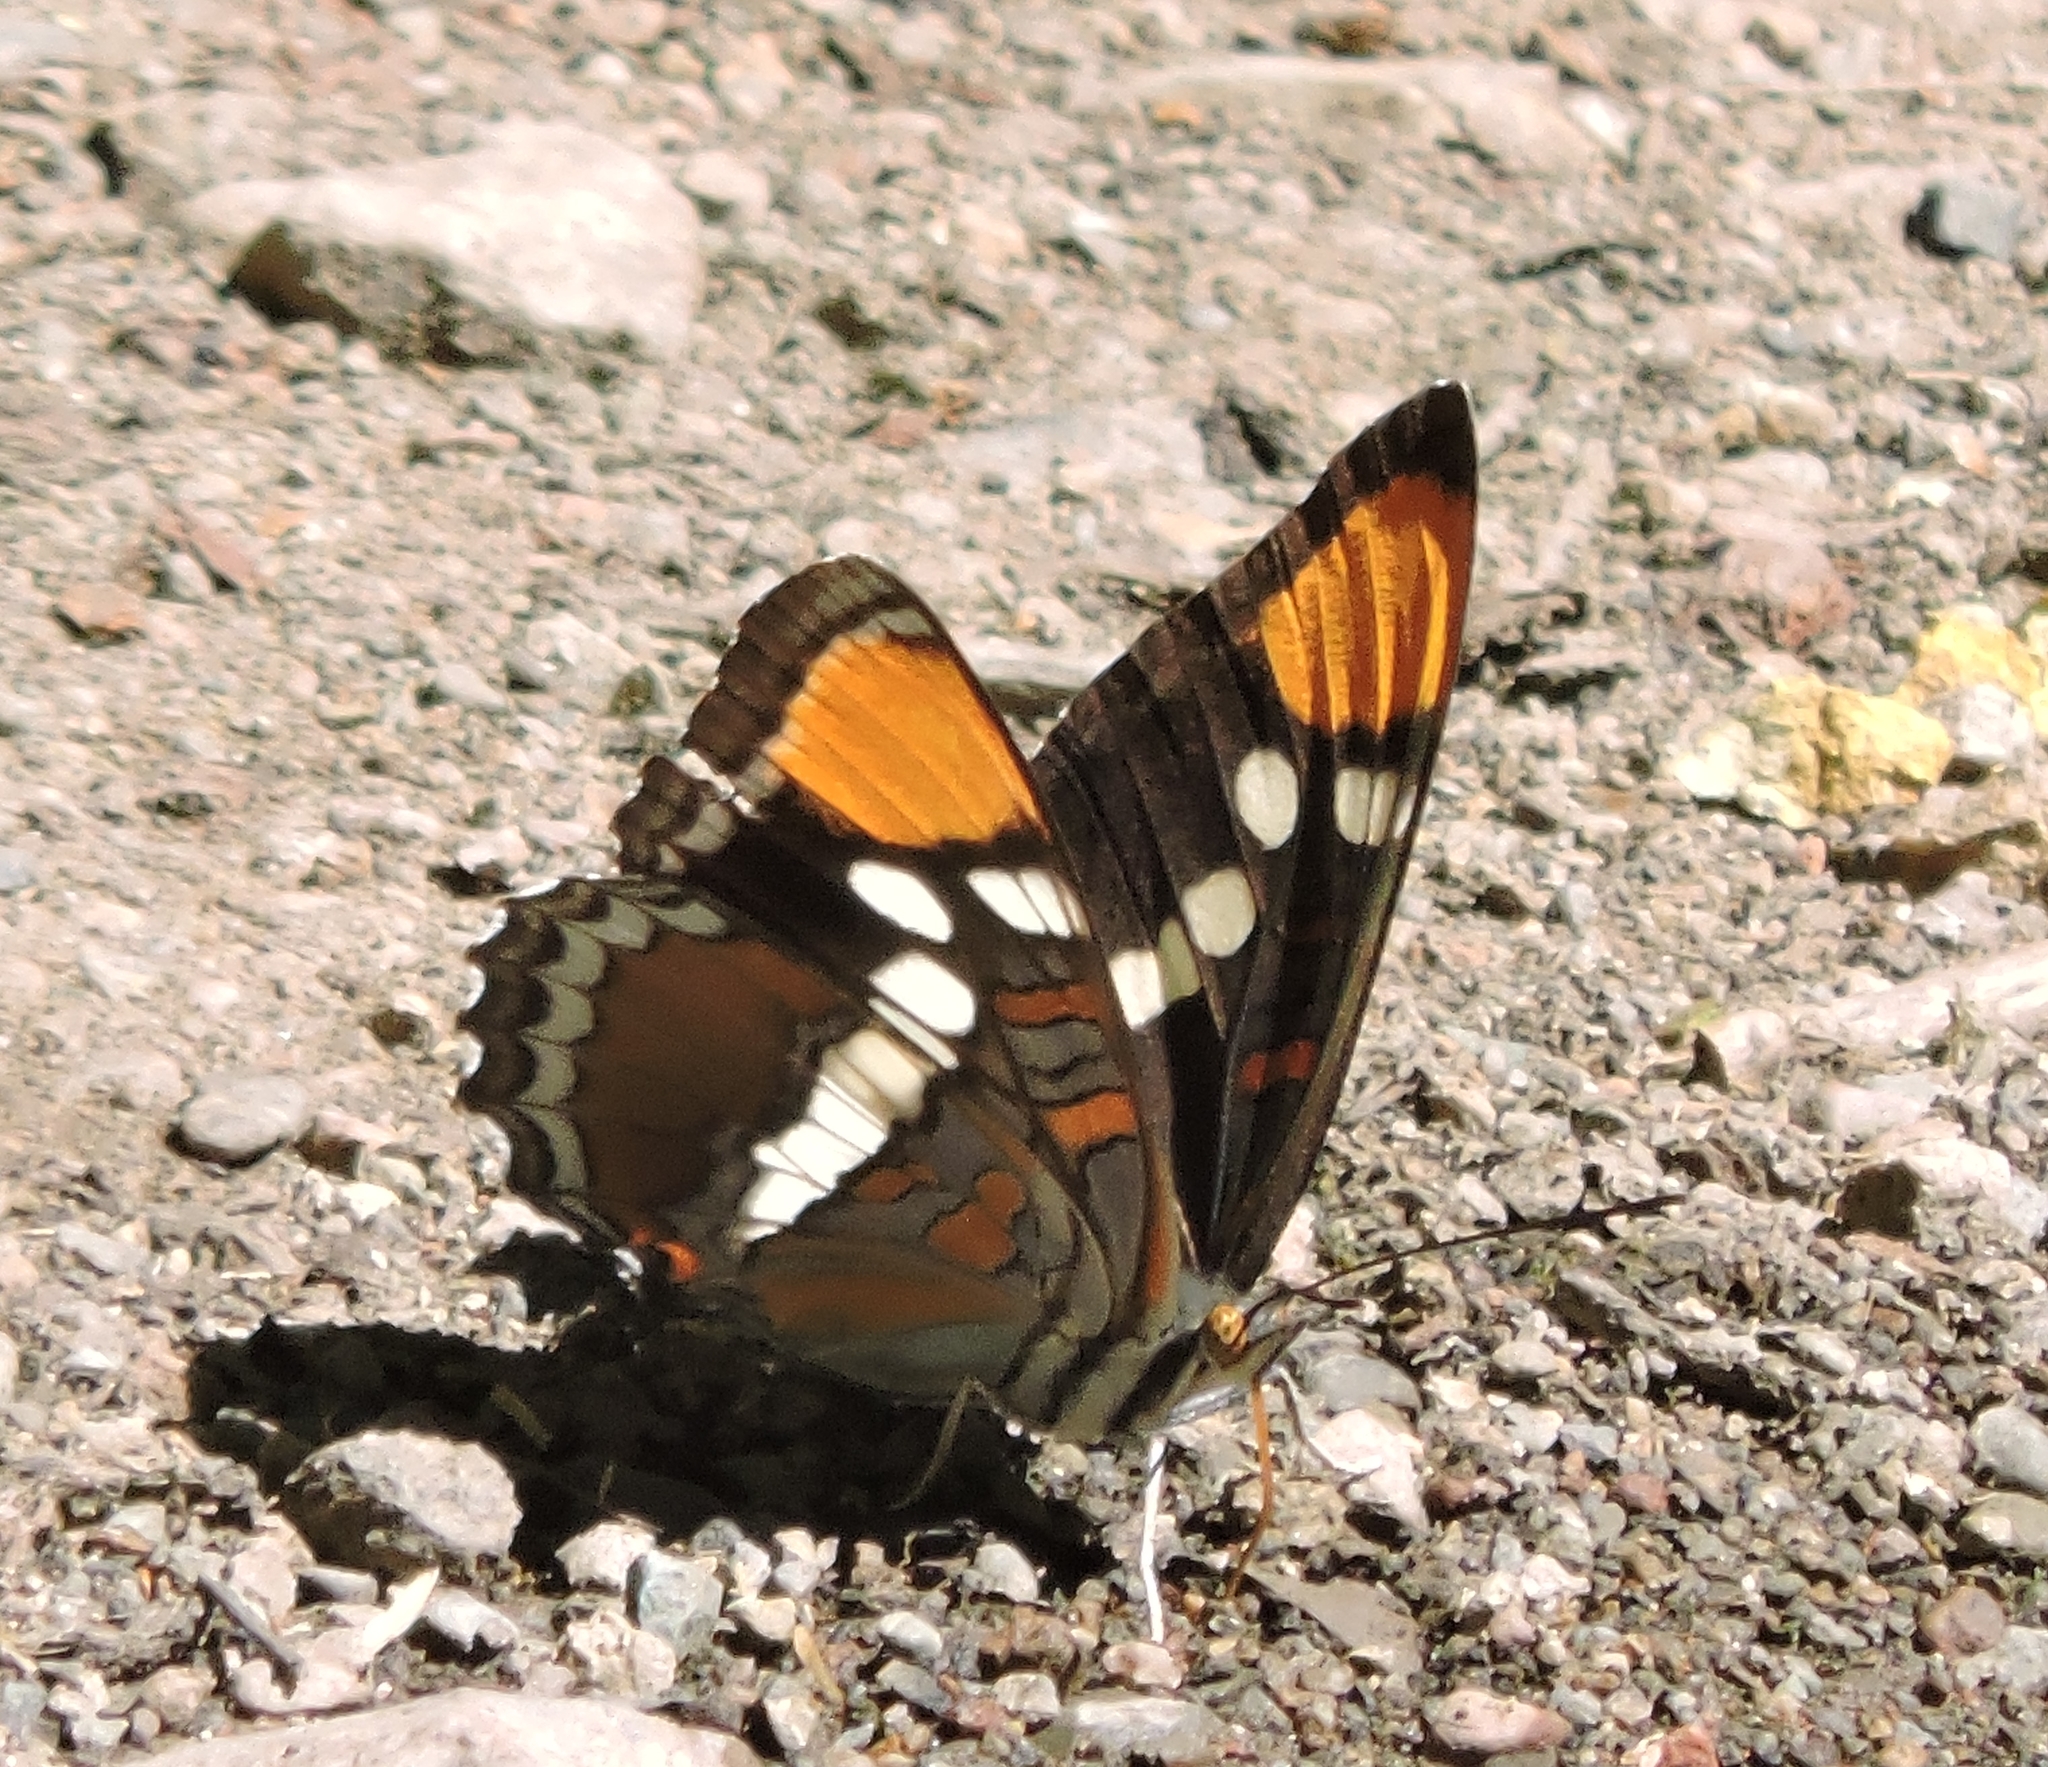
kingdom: Animalia
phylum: Arthropoda
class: Insecta
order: Lepidoptera
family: Nymphalidae
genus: Limenitis
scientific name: Limenitis bredowii
